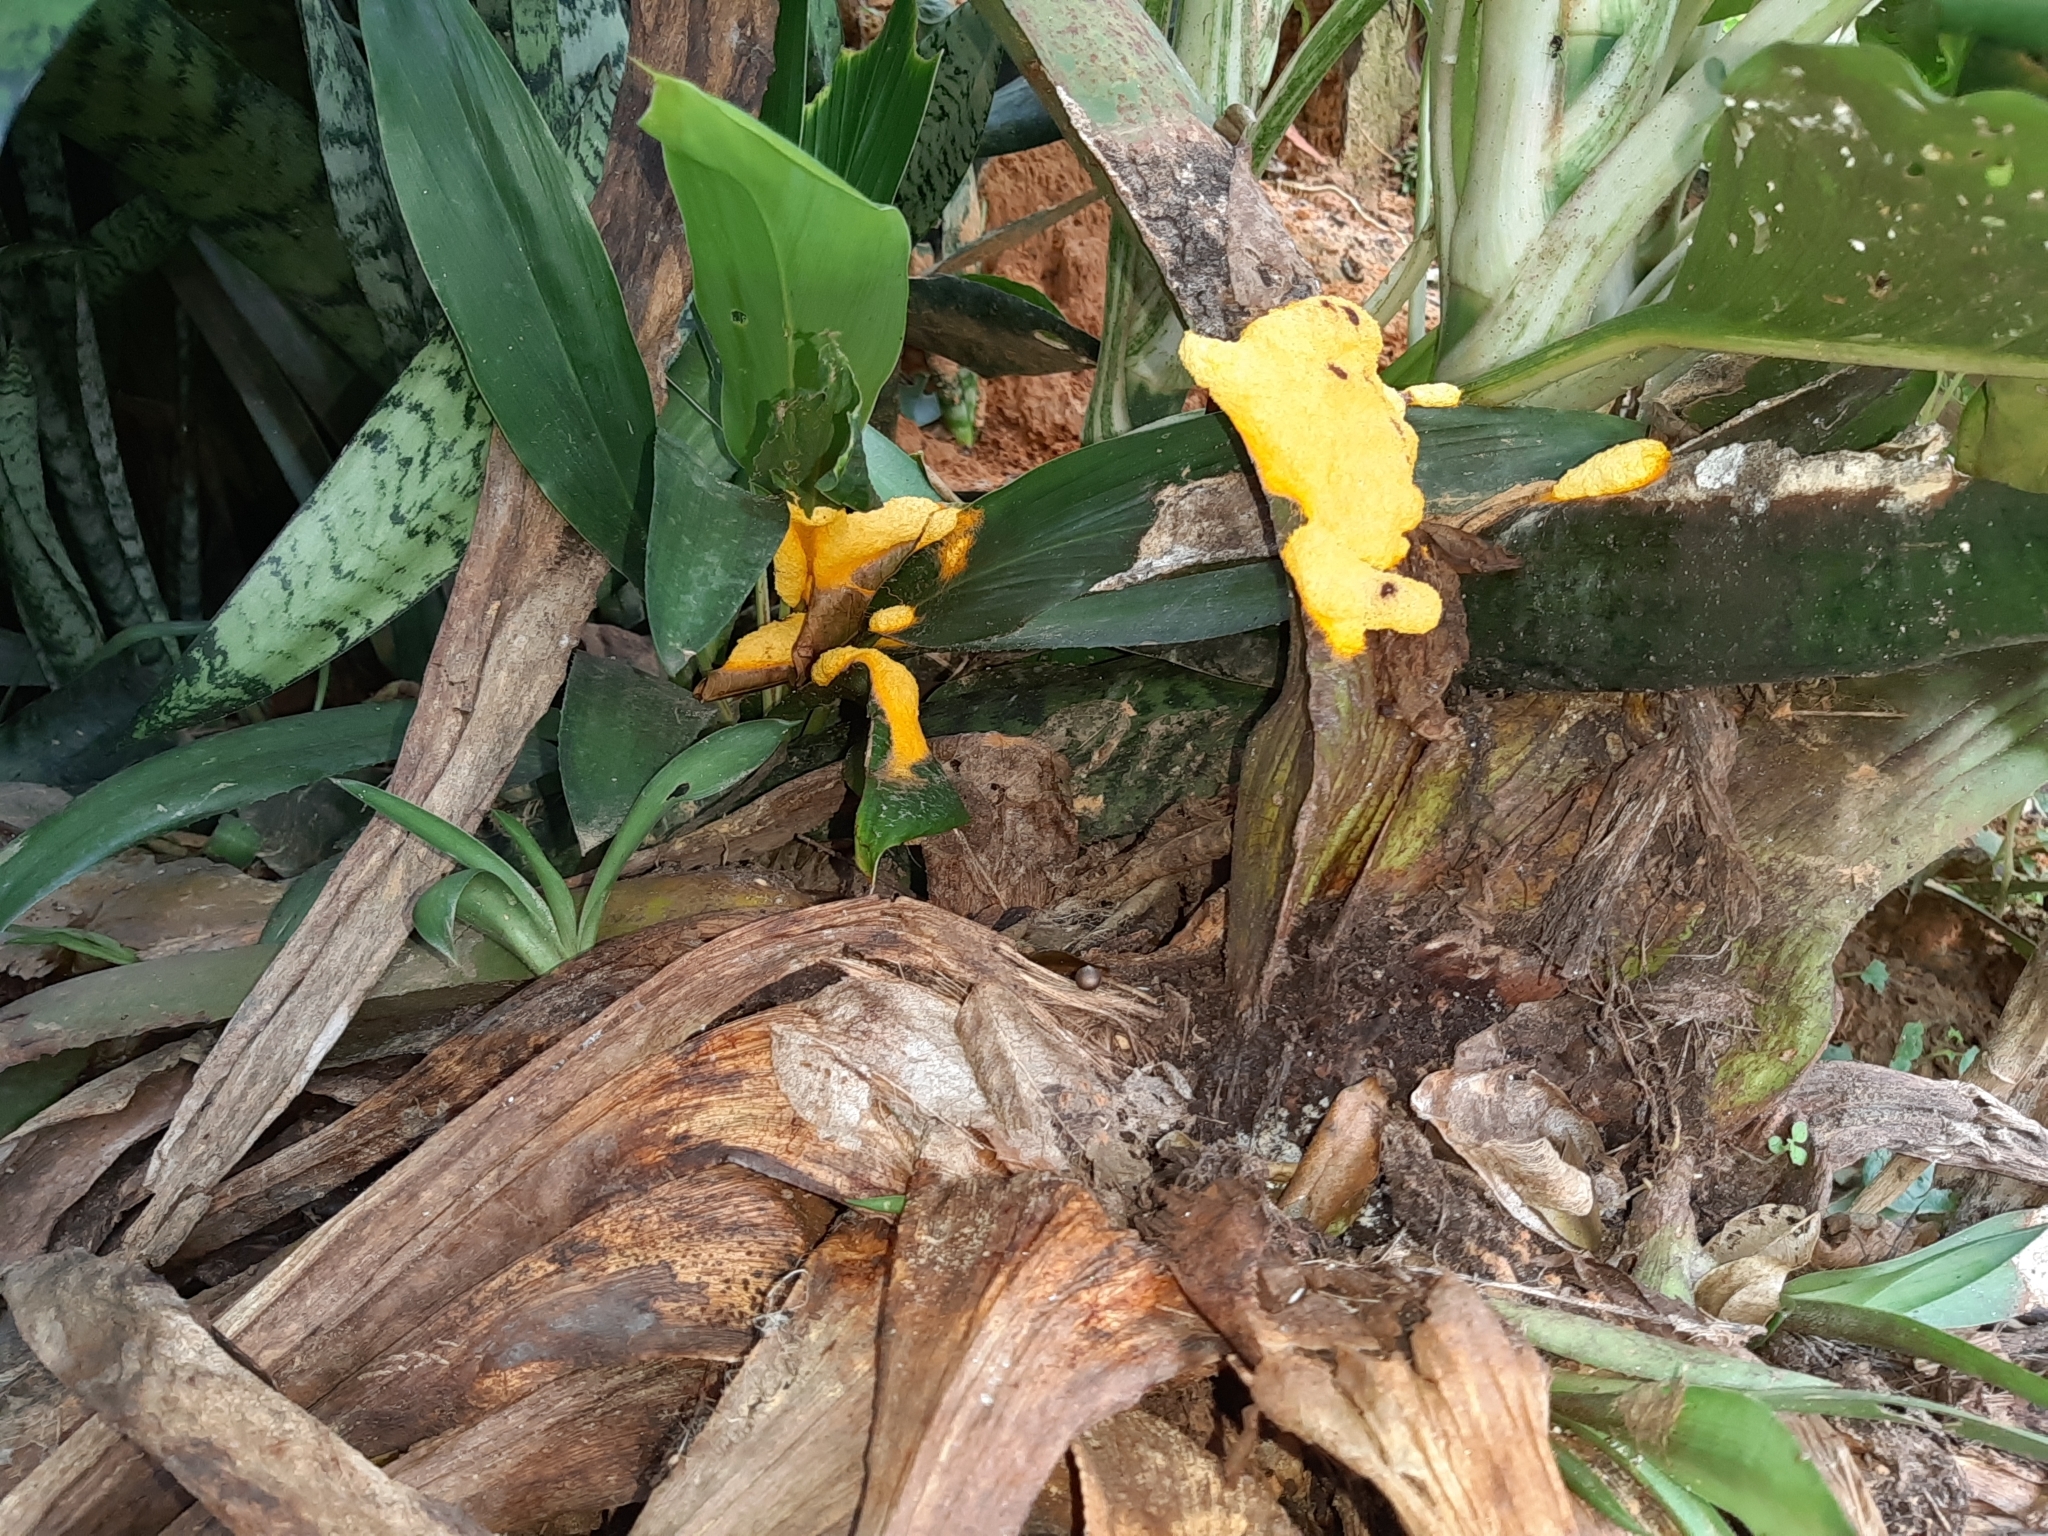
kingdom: Protozoa
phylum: Mycetozoa
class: Myxomycetes
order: Physarales
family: Physaraceae
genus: Fuligo
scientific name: Fuligo septica
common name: Dog vomit slime mold
